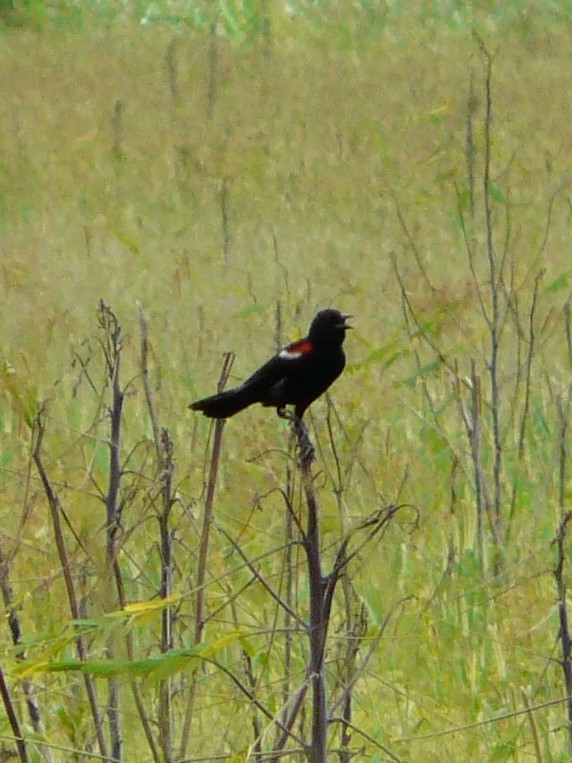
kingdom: Animalia
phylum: Chordata
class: Aves
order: Passeriformes
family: Icteridae
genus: Agelaius
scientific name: Agelaius phoeniceus
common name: Red-winged blackbird
